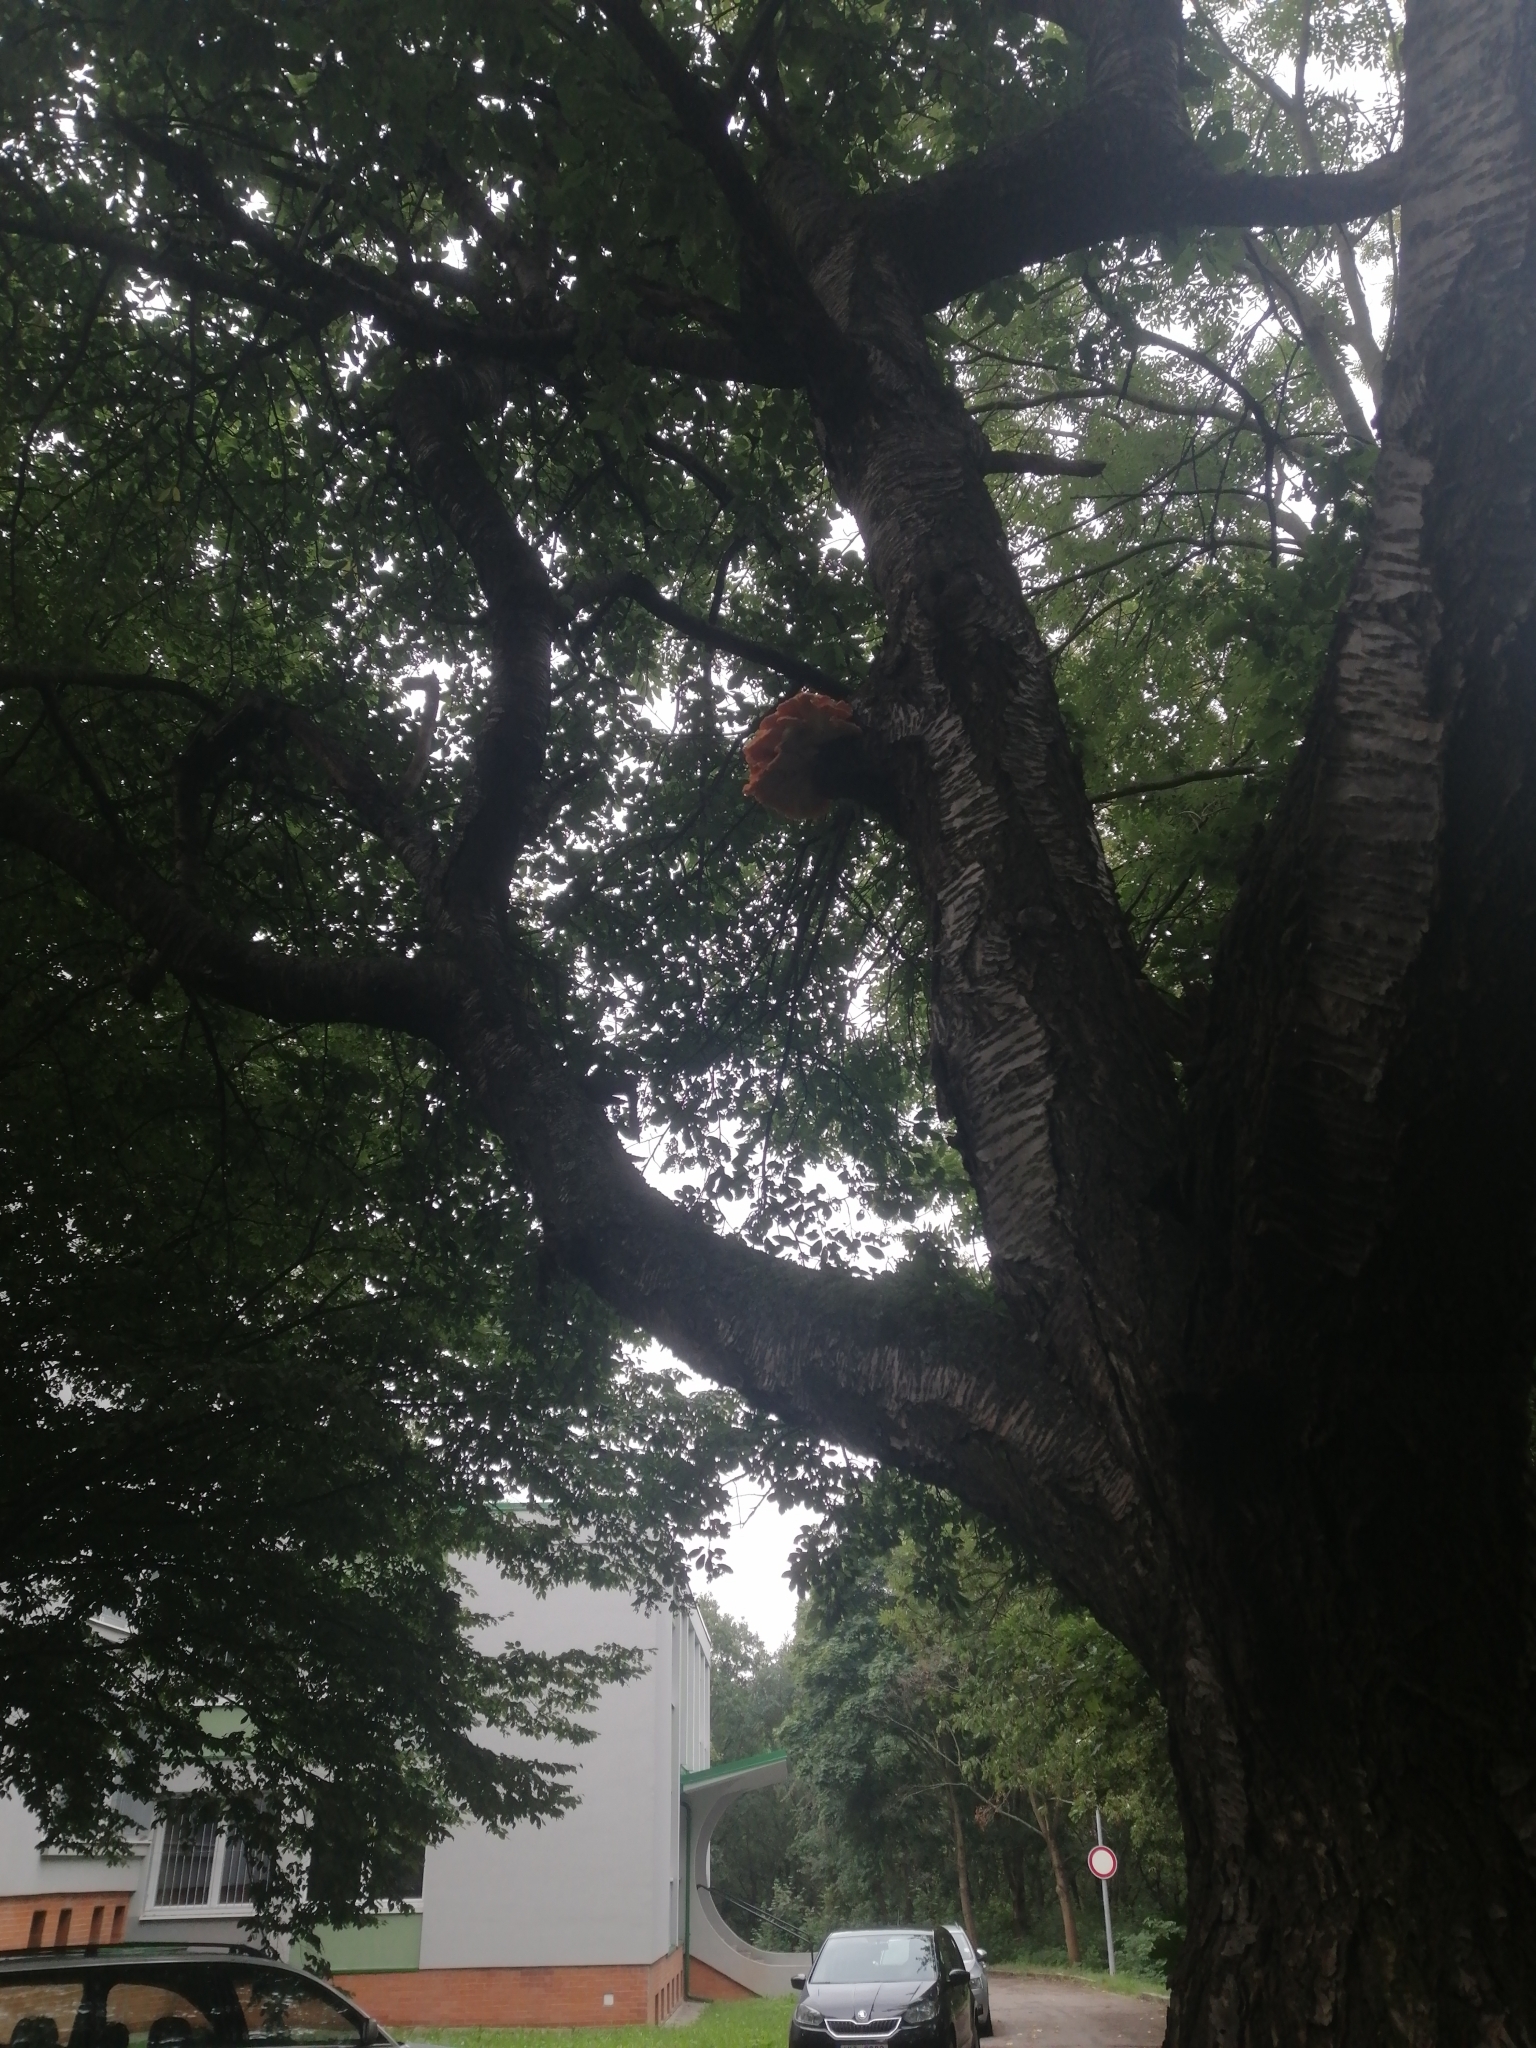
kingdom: Fungi
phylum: Basidiomycota
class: Agaricomycetes
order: Polyporales
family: Laetiporaceae
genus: Laetiporus
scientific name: Laetiporus sulphureus
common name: Chicken of the woods
